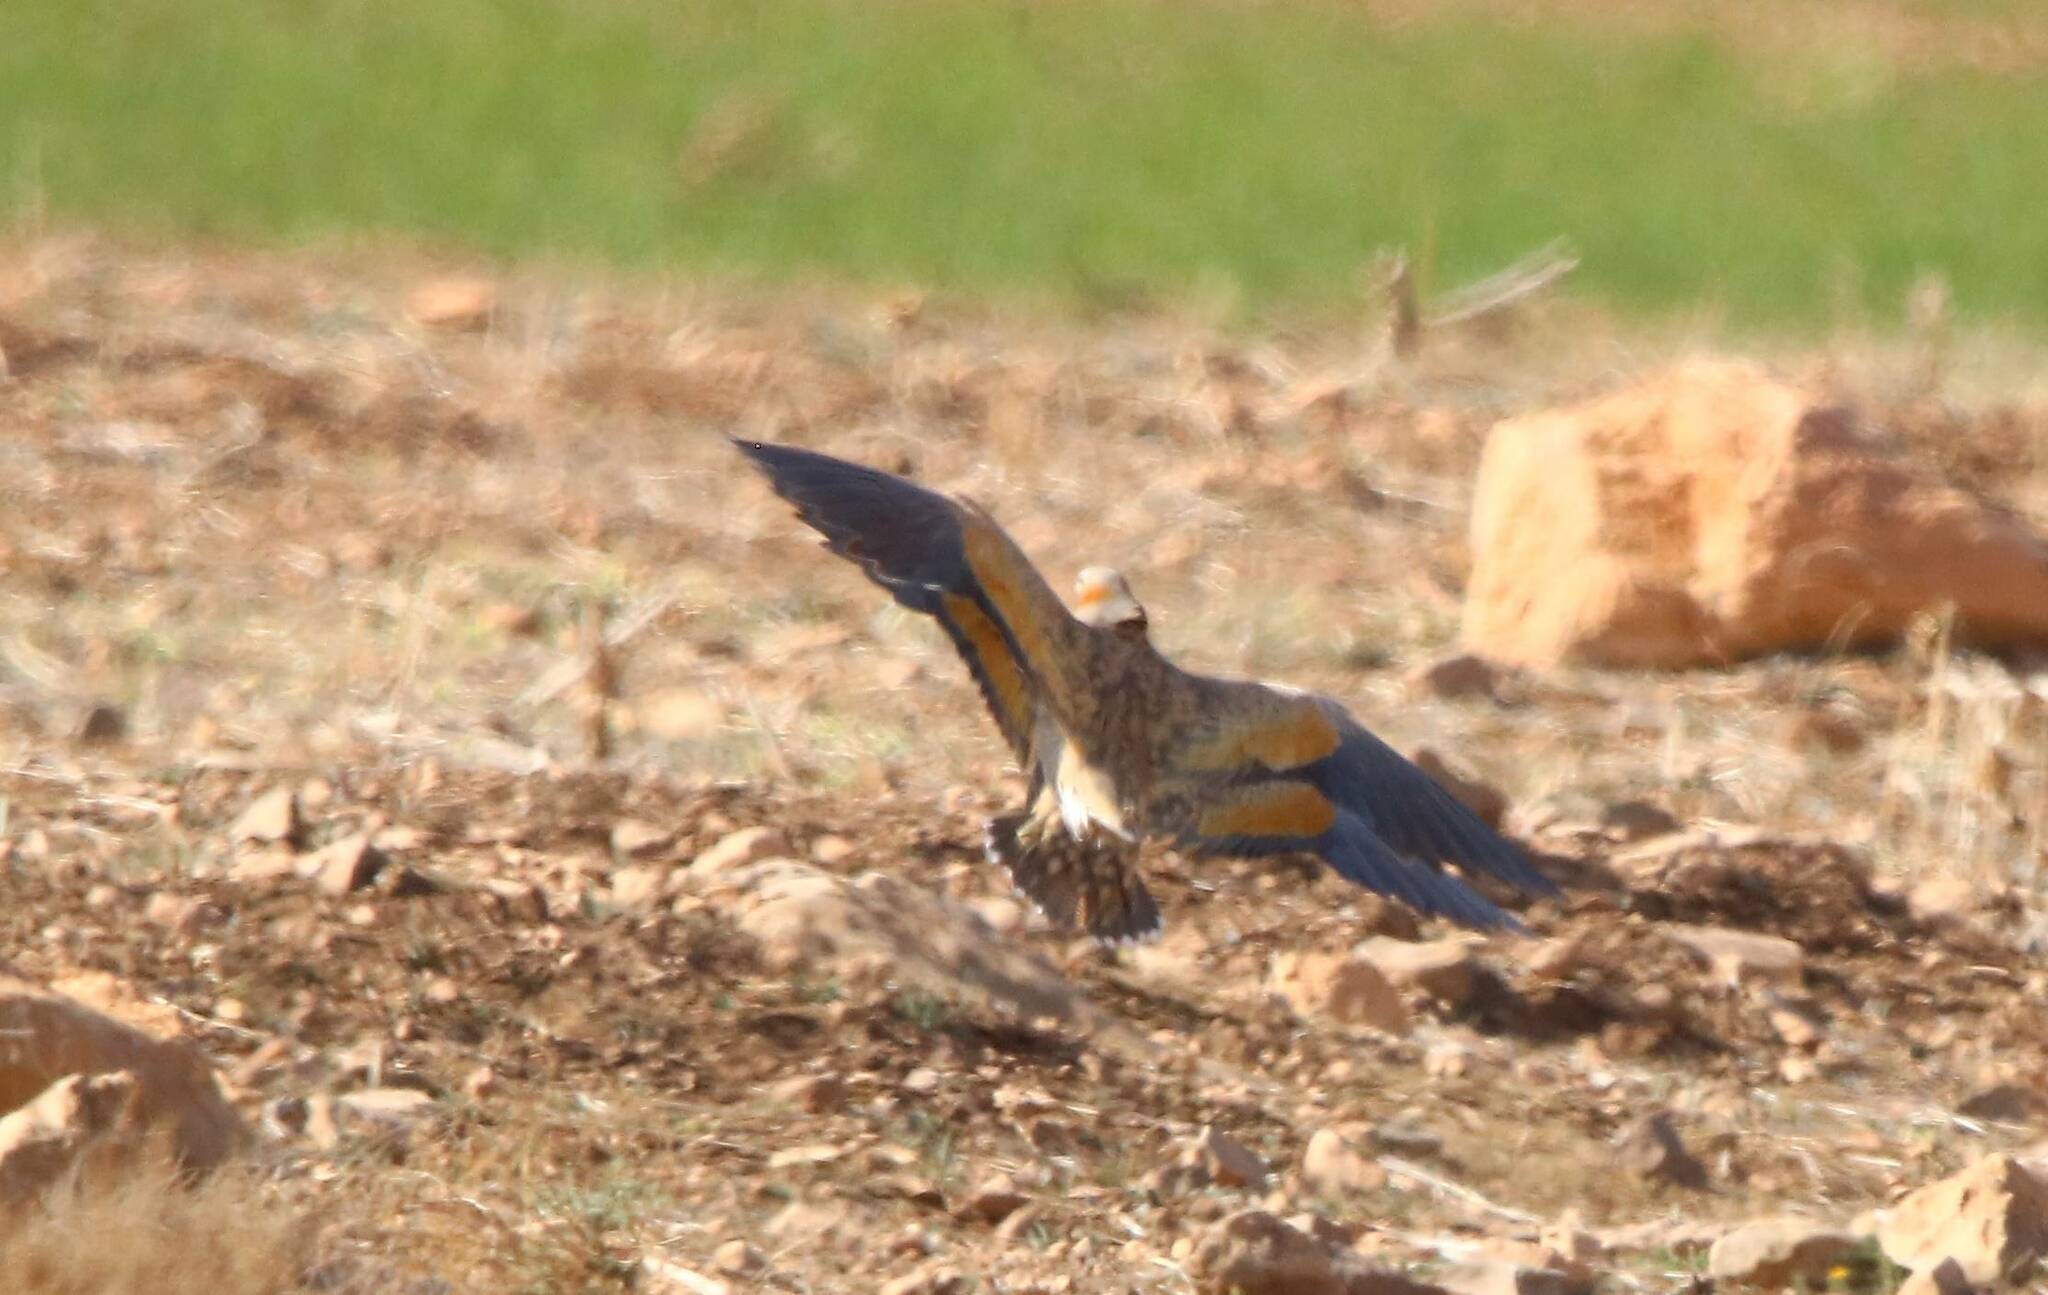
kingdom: Animalia
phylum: Chordata
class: Aves
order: Pteroclidiformes
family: Pteroclididae
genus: Pterocles
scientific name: Pterocles orientalis
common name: Black-bellied sandgrouse
